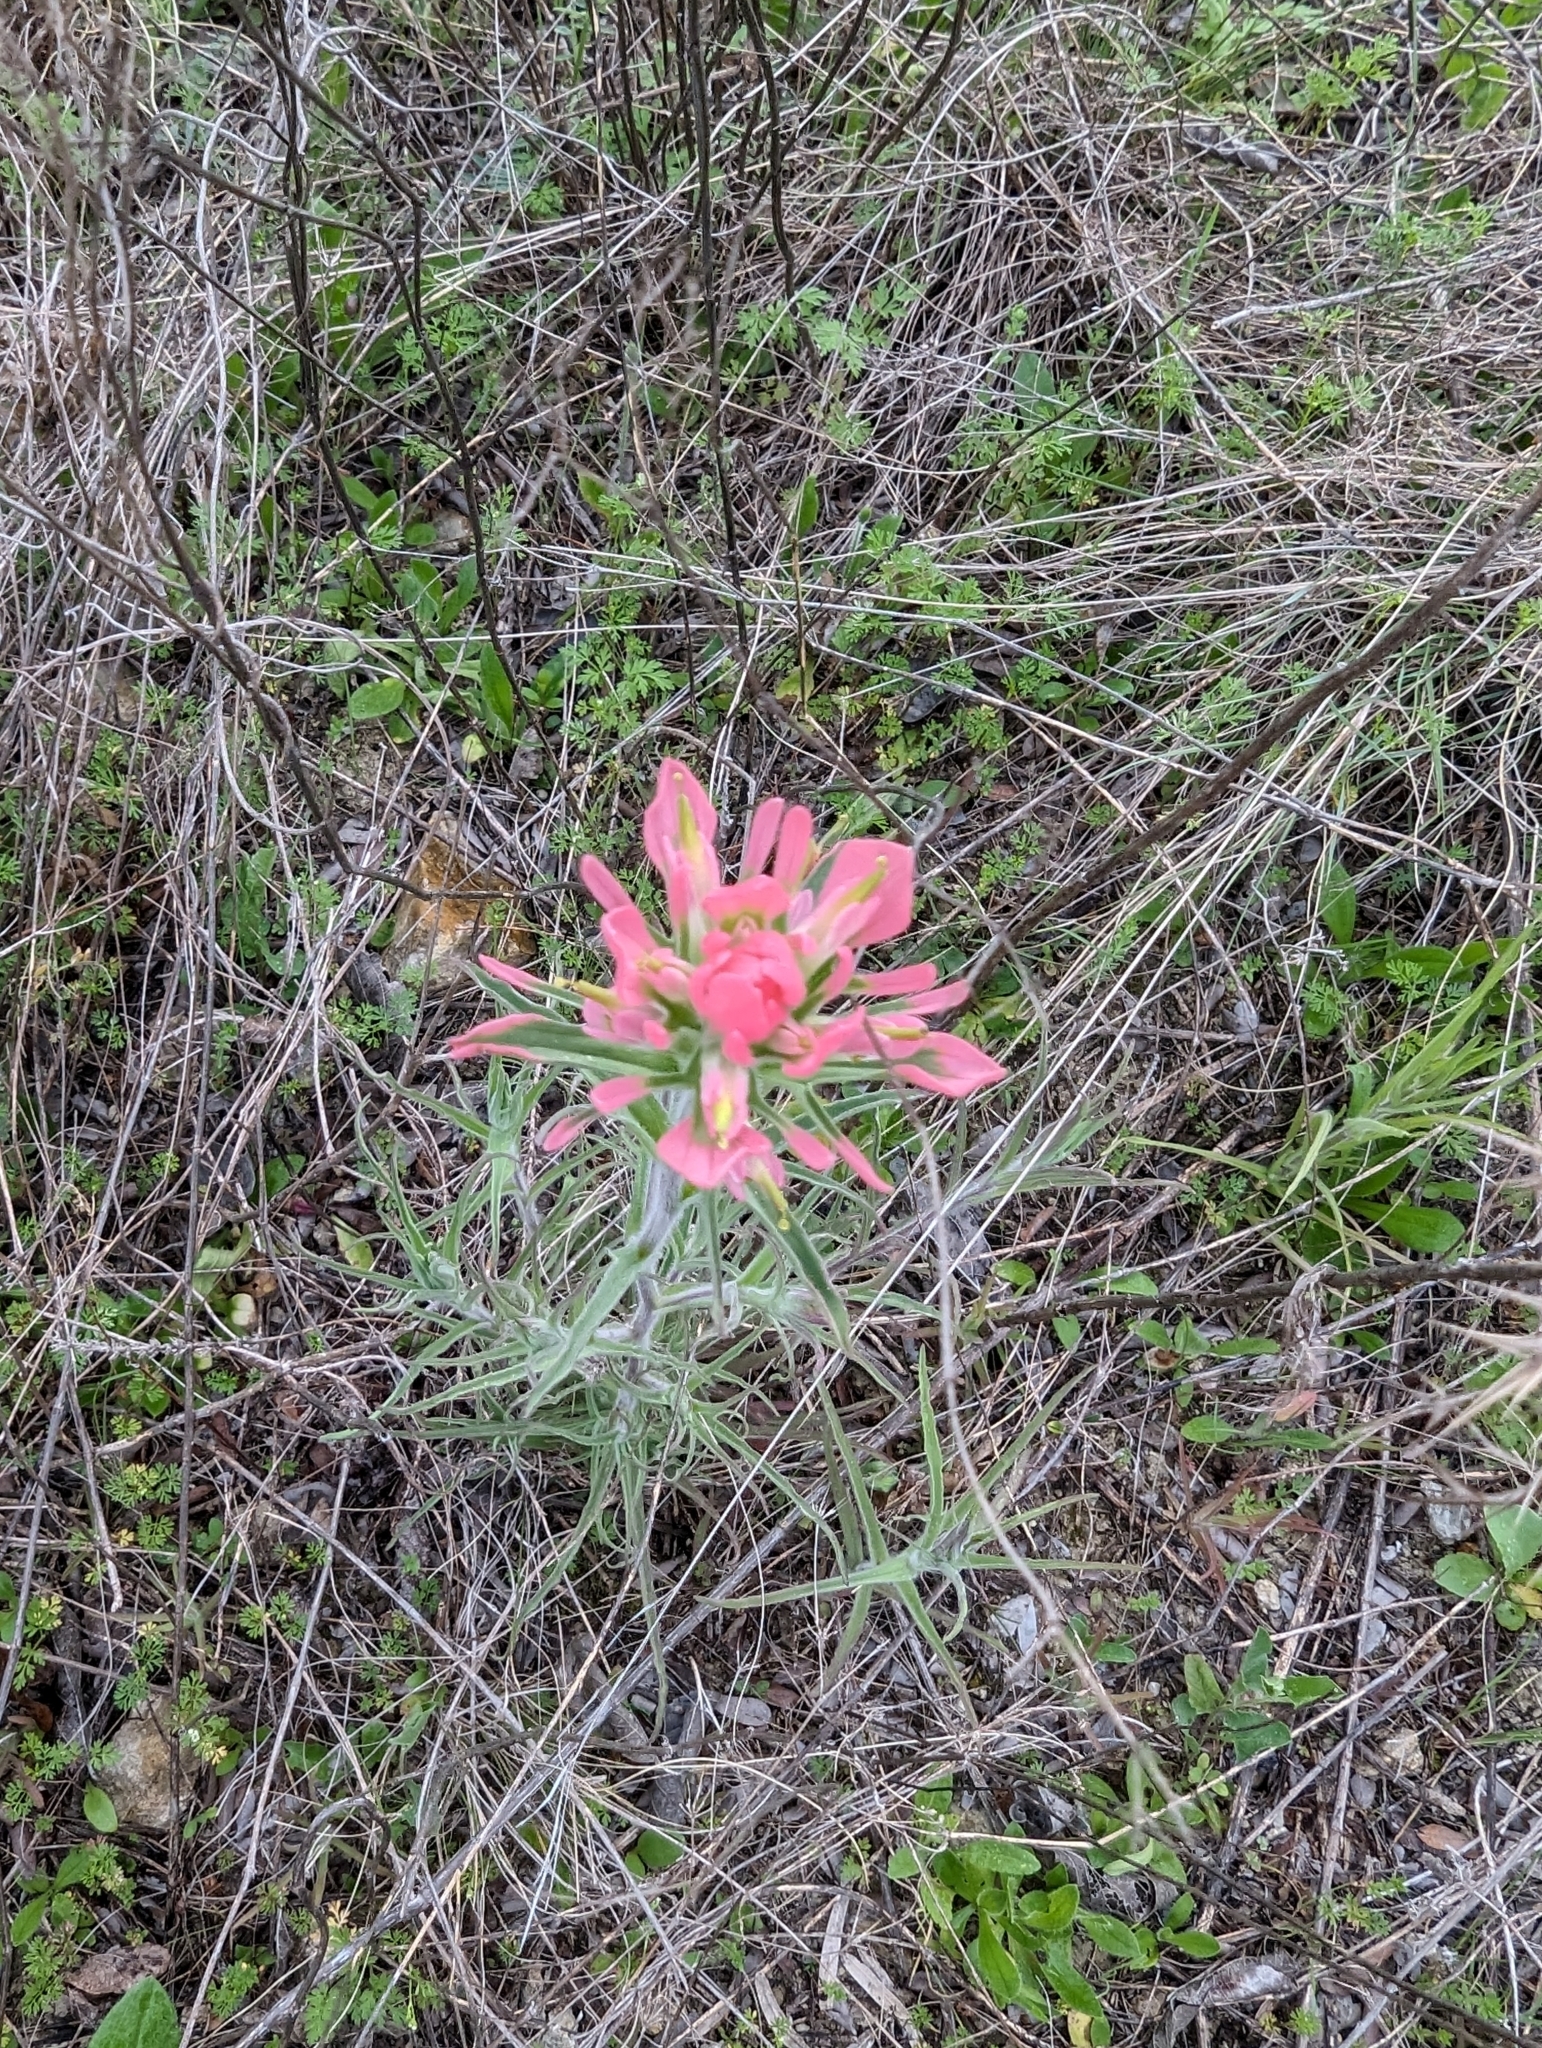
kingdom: Plantae
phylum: Tracheophyta
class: Magnoliopsida
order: Lamiales
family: Orobanchaceae
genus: Castilleja
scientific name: Castilleja
